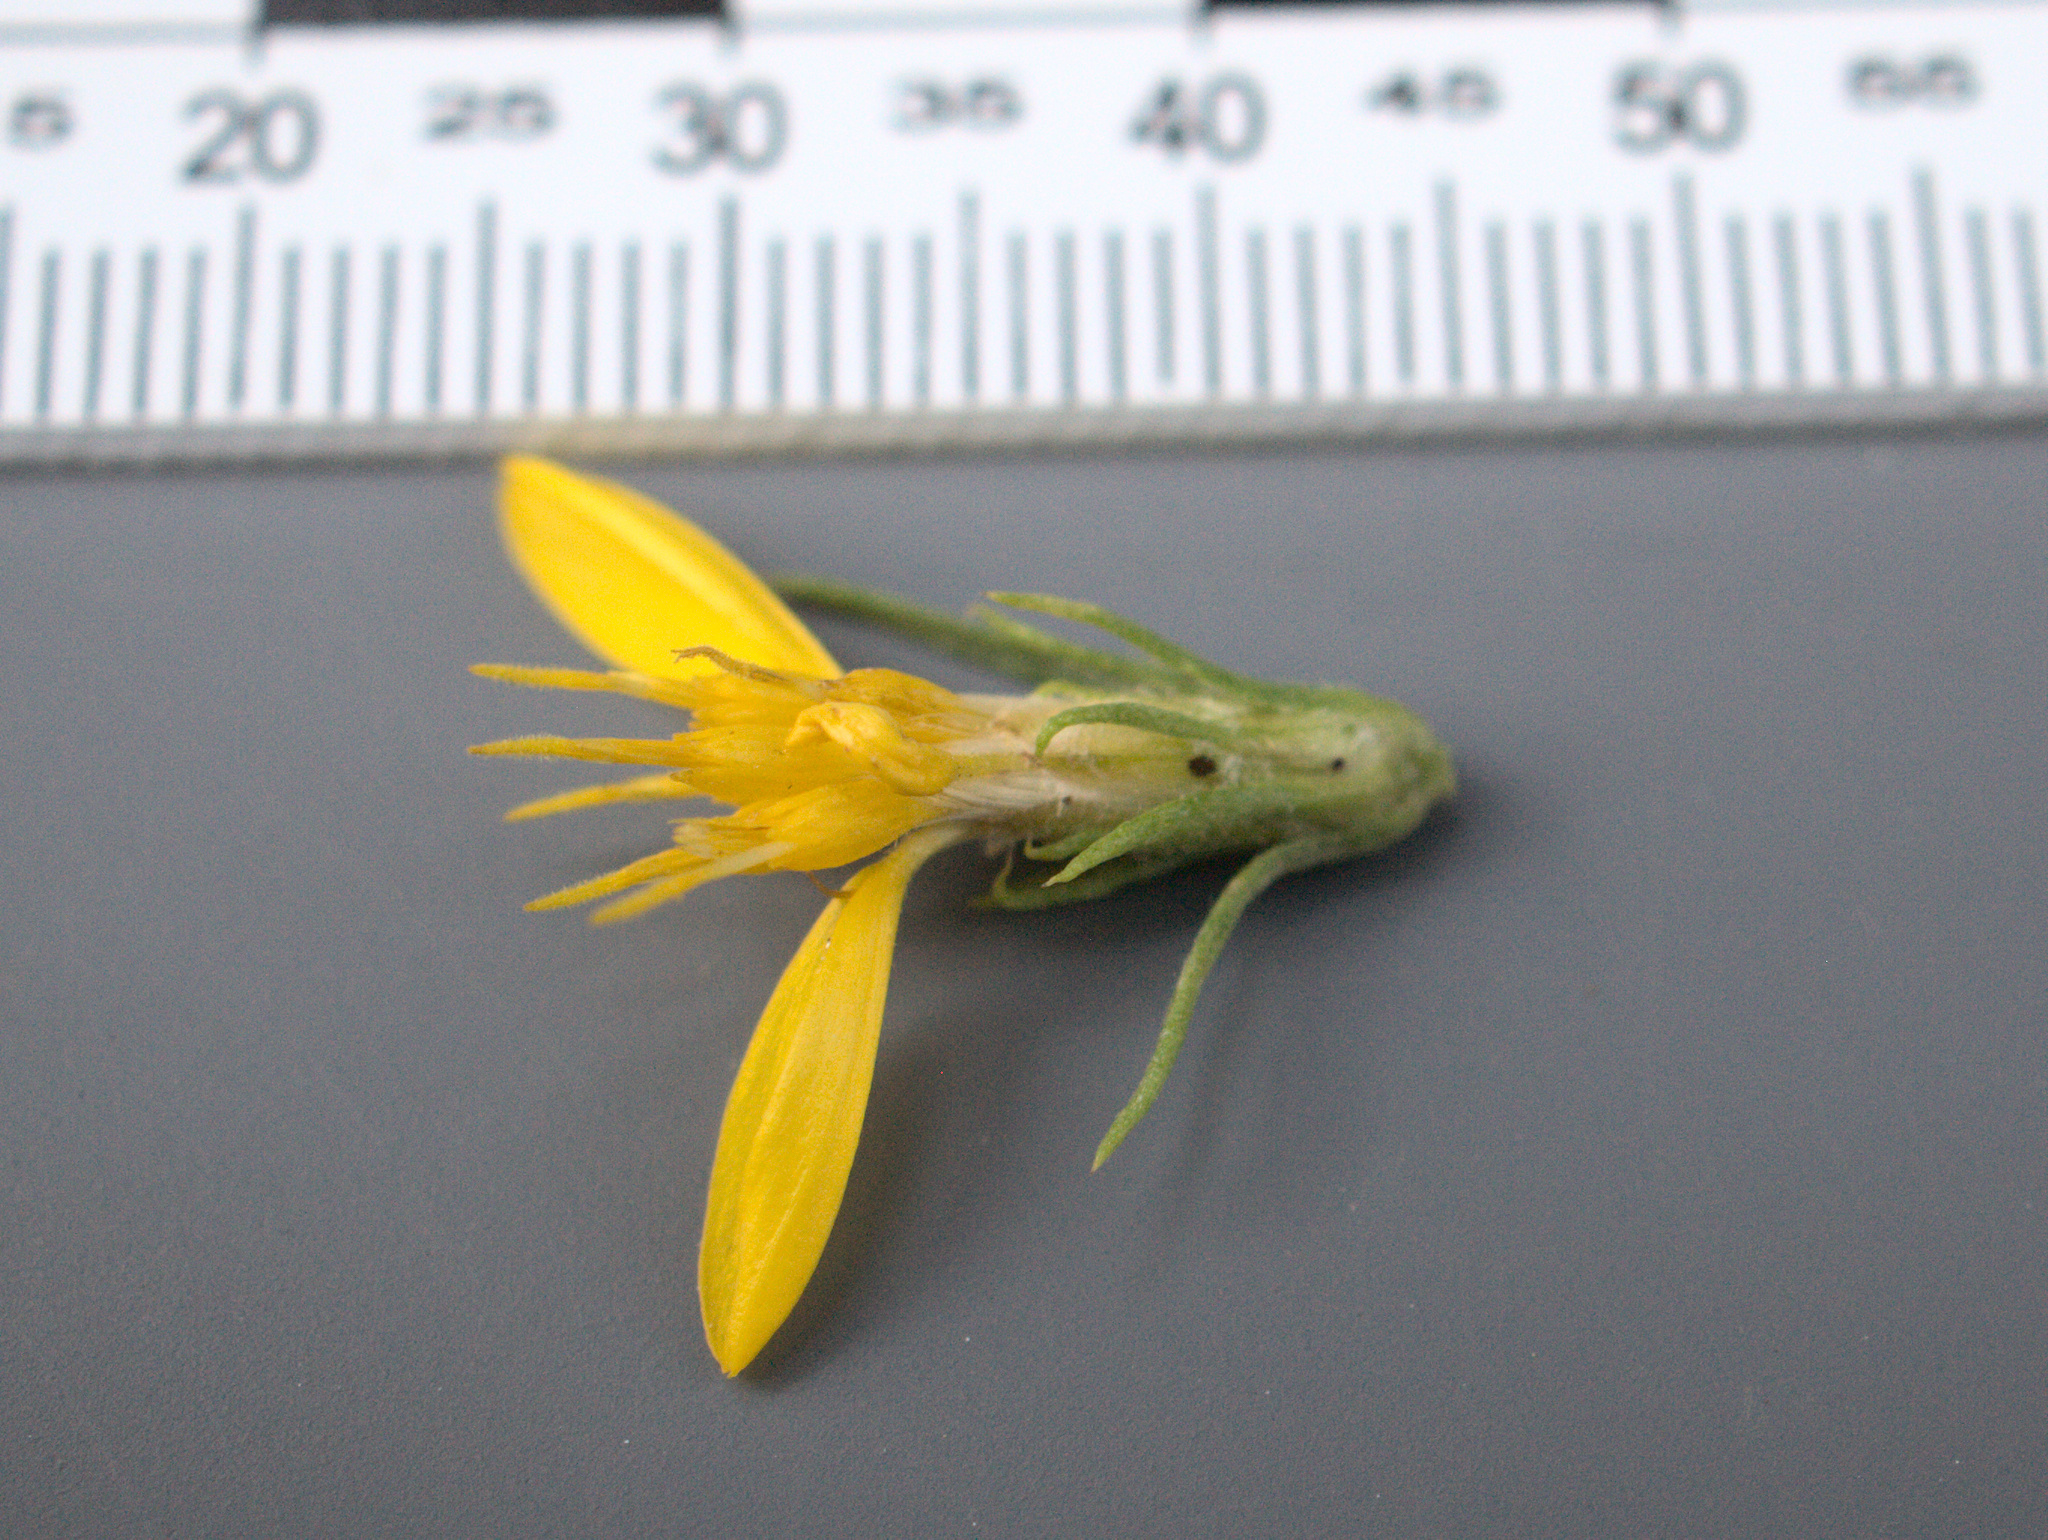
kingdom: Plantae
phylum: Tracheophyta
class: Magnoliopsida
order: Asterales
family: Asteraceae
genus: Ericameria
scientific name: Ericameria bloomeri
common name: Bloomer's goldenbush
